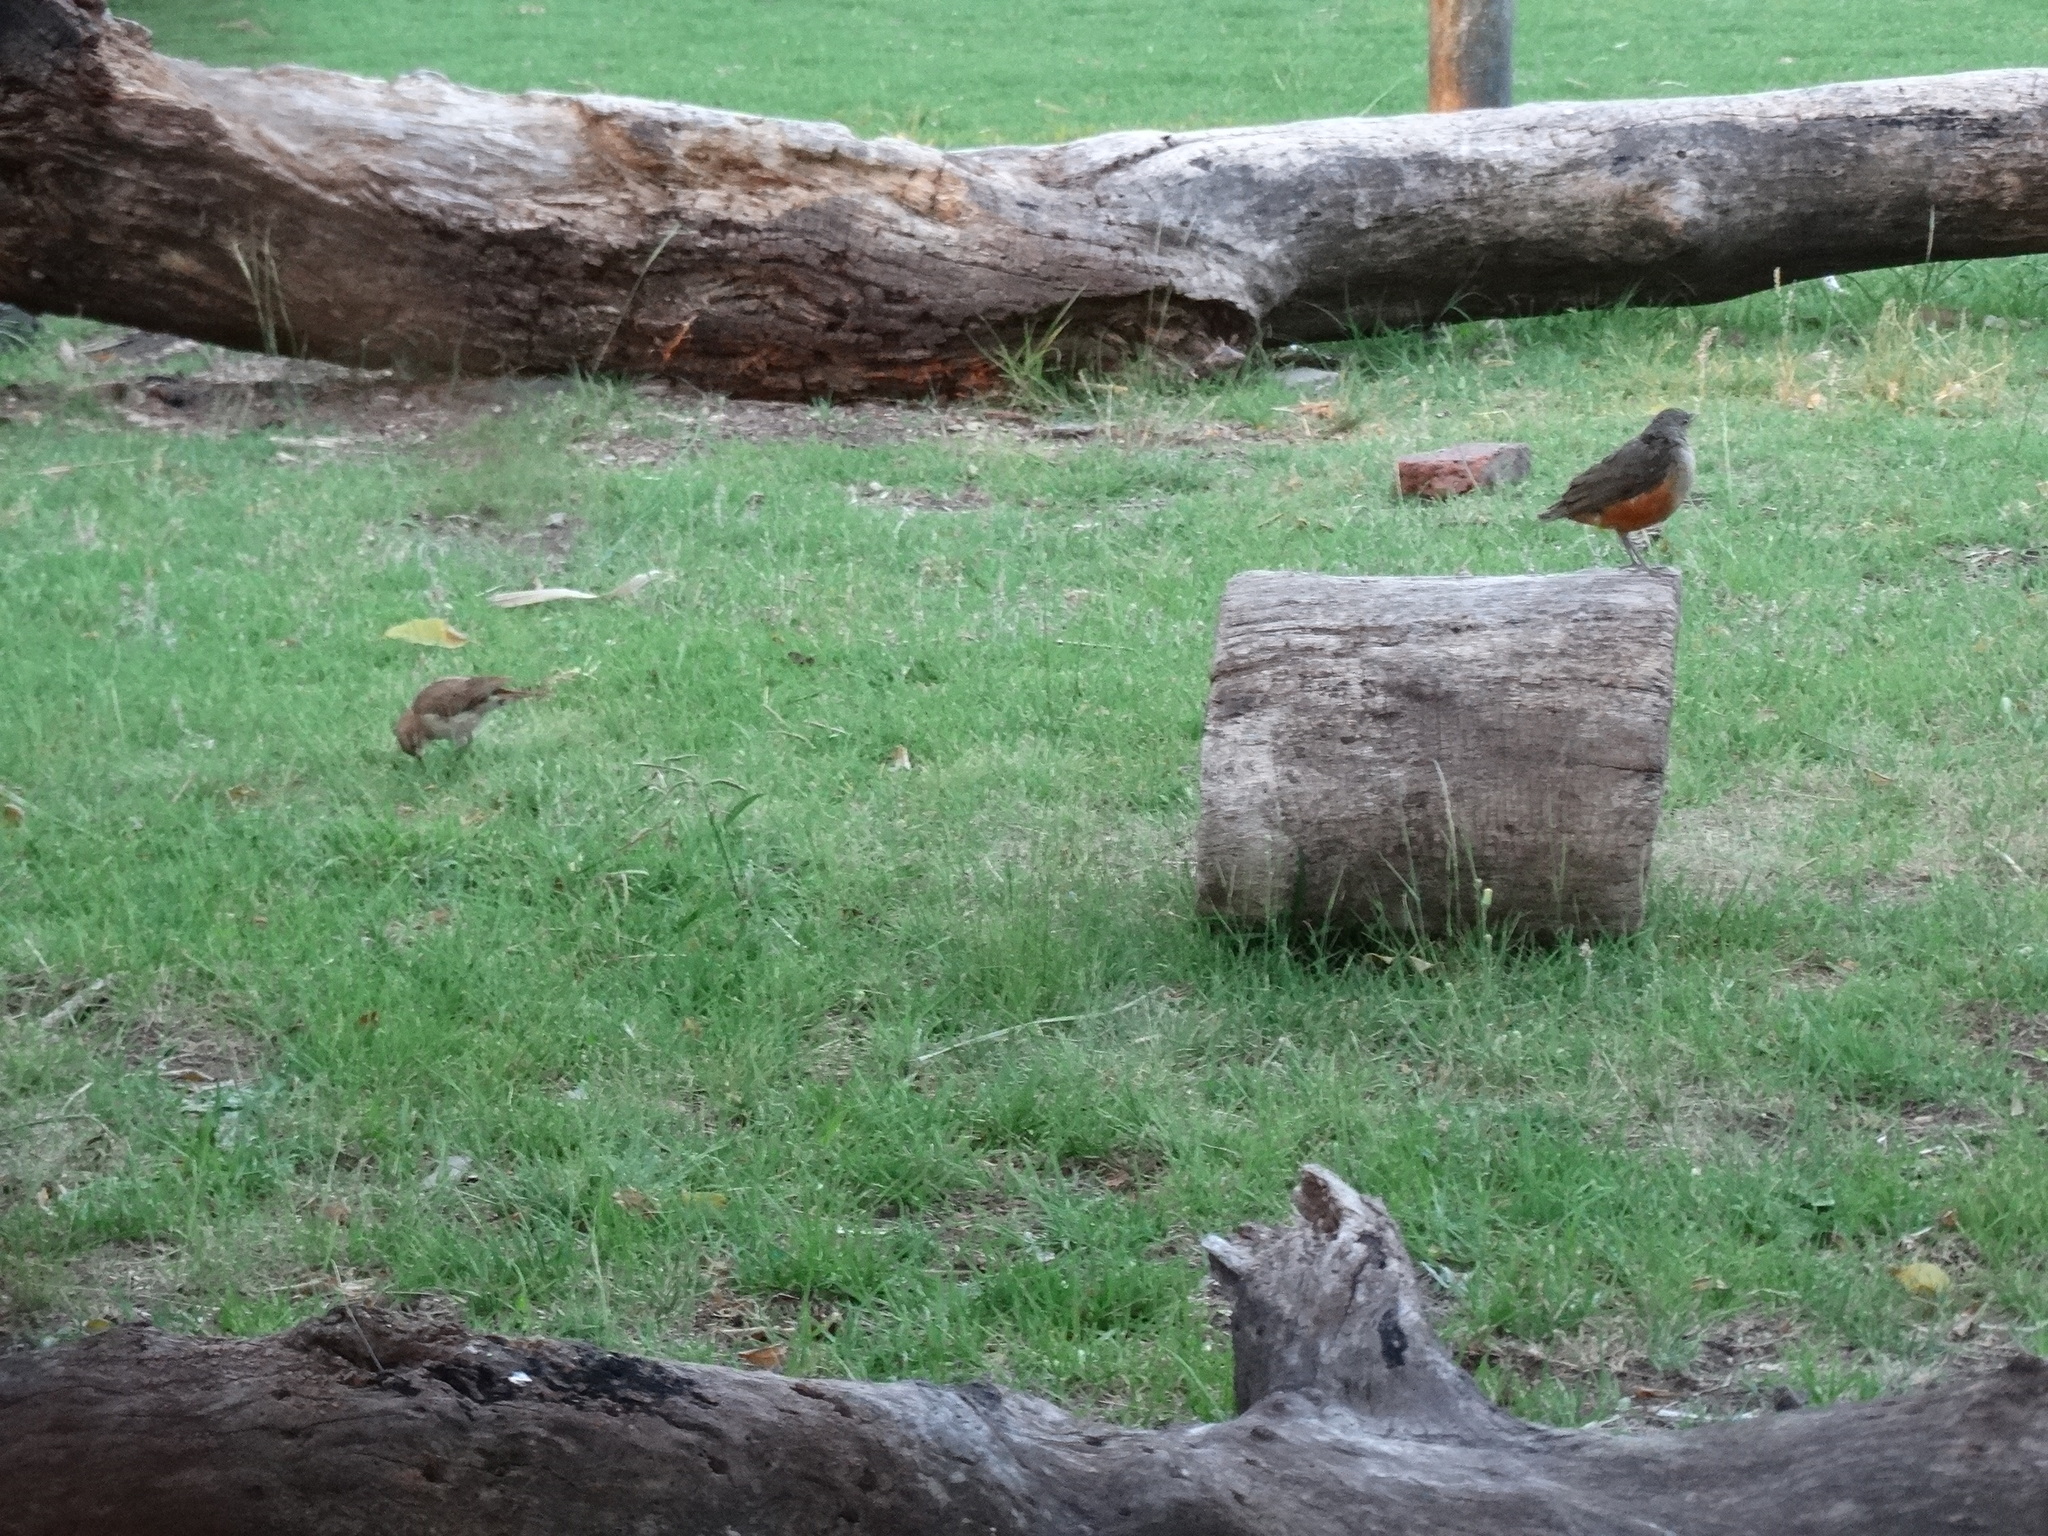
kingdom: Animalia
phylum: Chordata
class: Aves
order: Passeriformes
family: Turdidae
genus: Turdus
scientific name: Turdus rufiventris
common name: Rufous-bellied thrush
